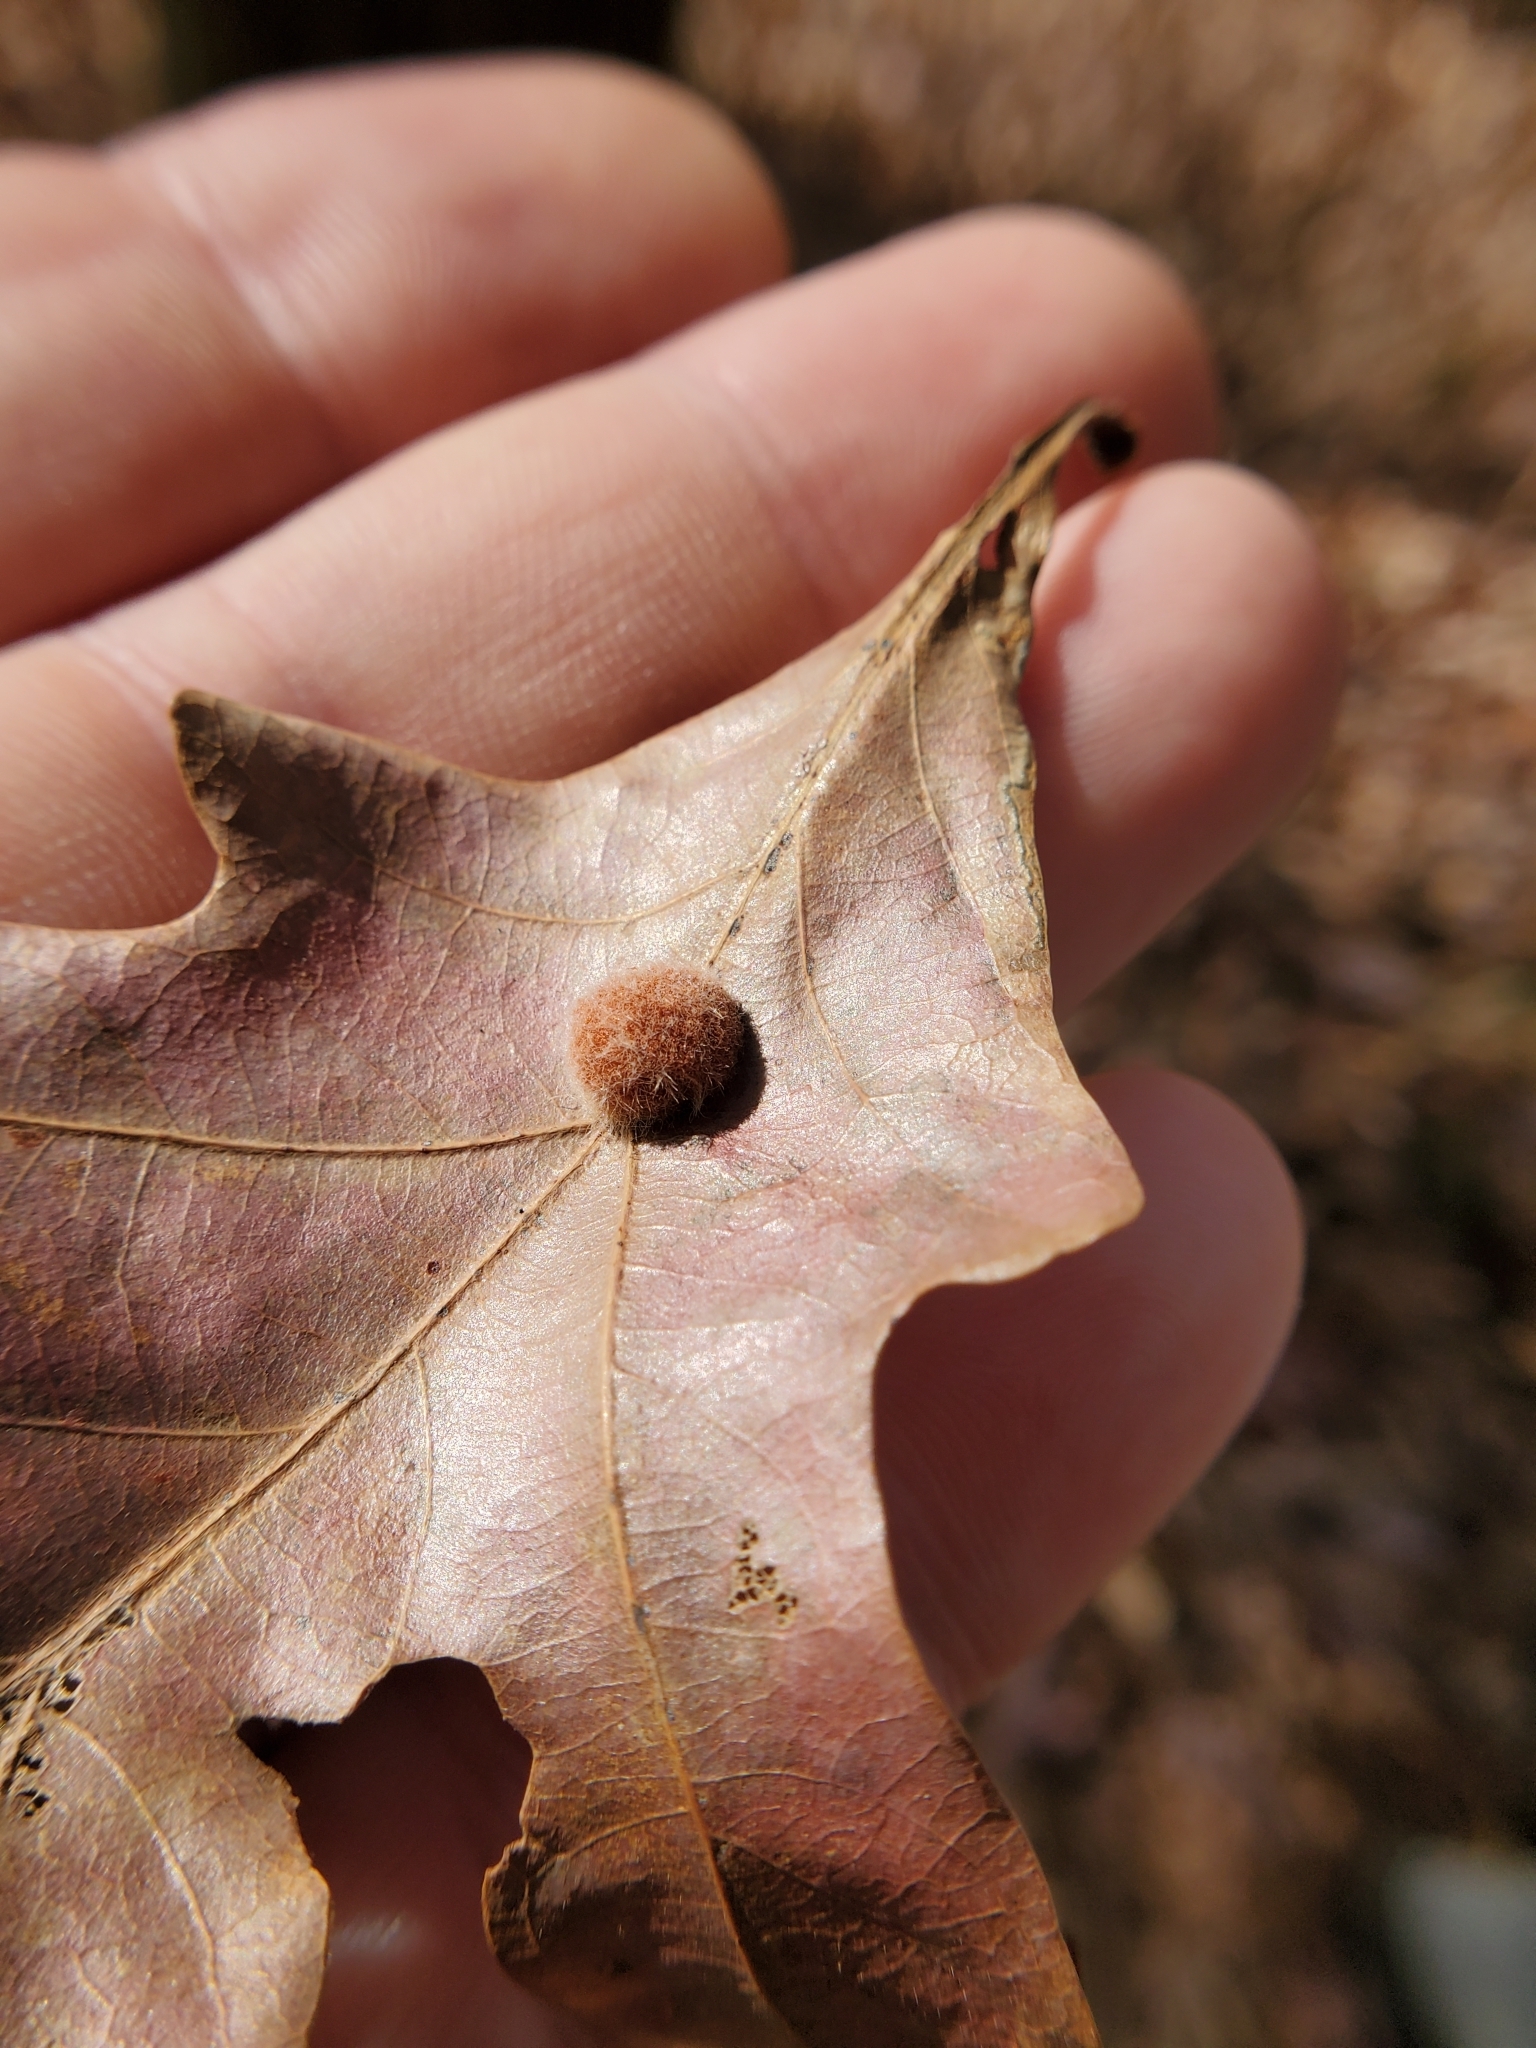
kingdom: Animalia
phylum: Arthropoda
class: Insecta
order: Hymenoptera
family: Cynipidae
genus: Andricus
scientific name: Andricus quercusflocci
